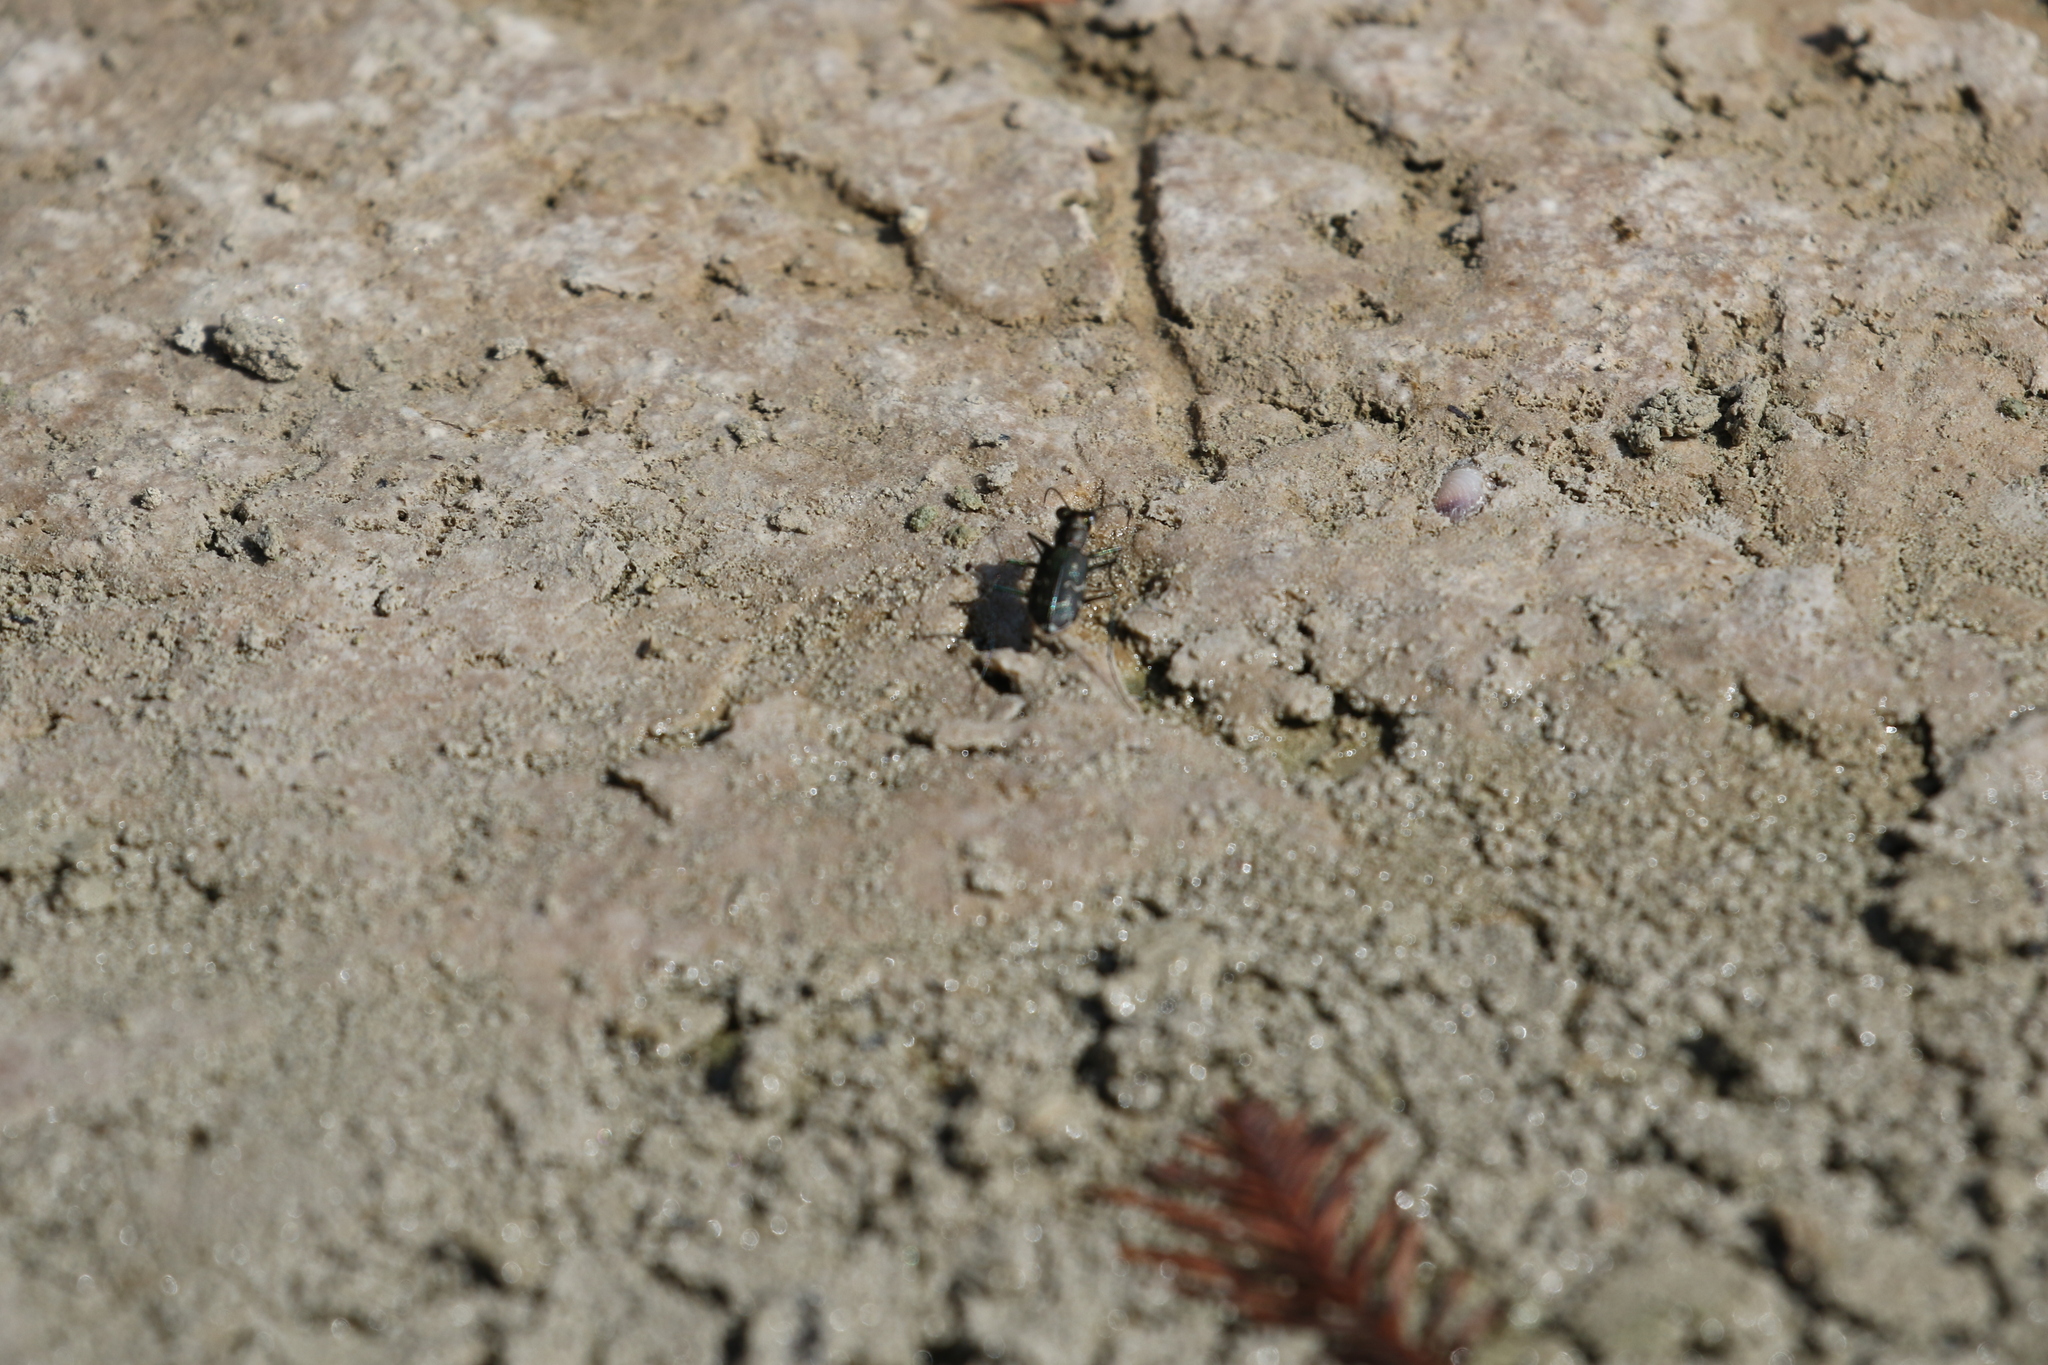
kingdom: Animalia
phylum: Arthropoda
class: Insecta
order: Coleoptera
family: Carabidae
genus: Cicindela
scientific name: Cicindela trifasciata
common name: Mudflat tiger beetle
